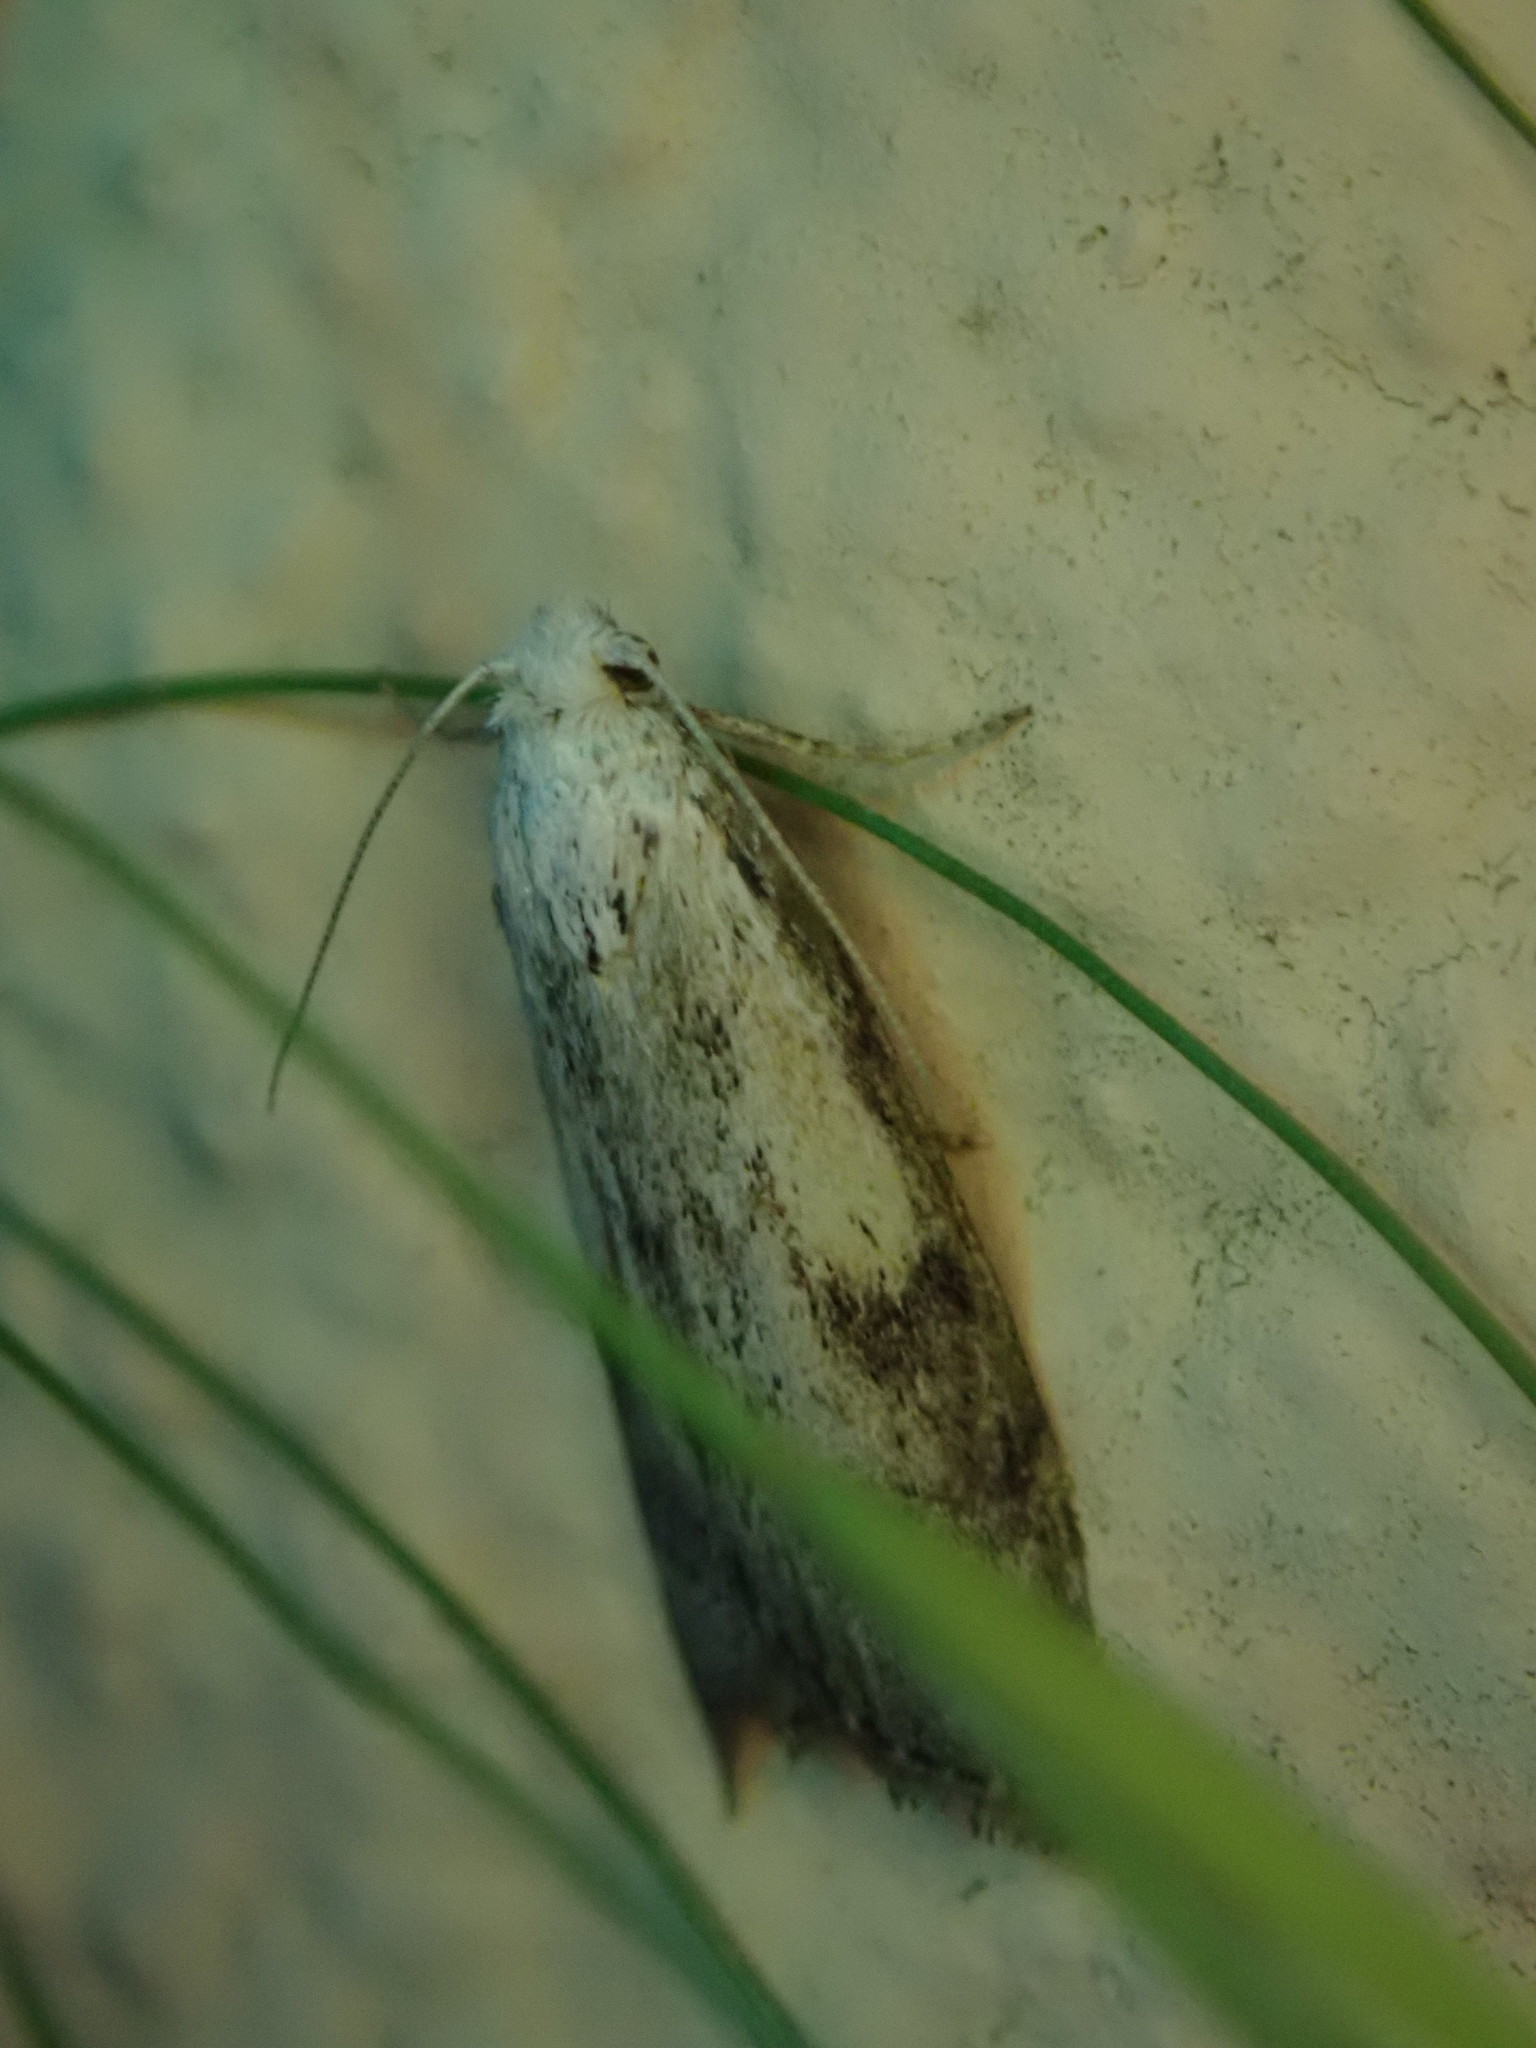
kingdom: Animalia
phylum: Arthropoda
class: Insecta
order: Lepidoptera
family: Pyralidae
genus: Aphomia
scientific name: Aphomia sociella
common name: Bee moth
